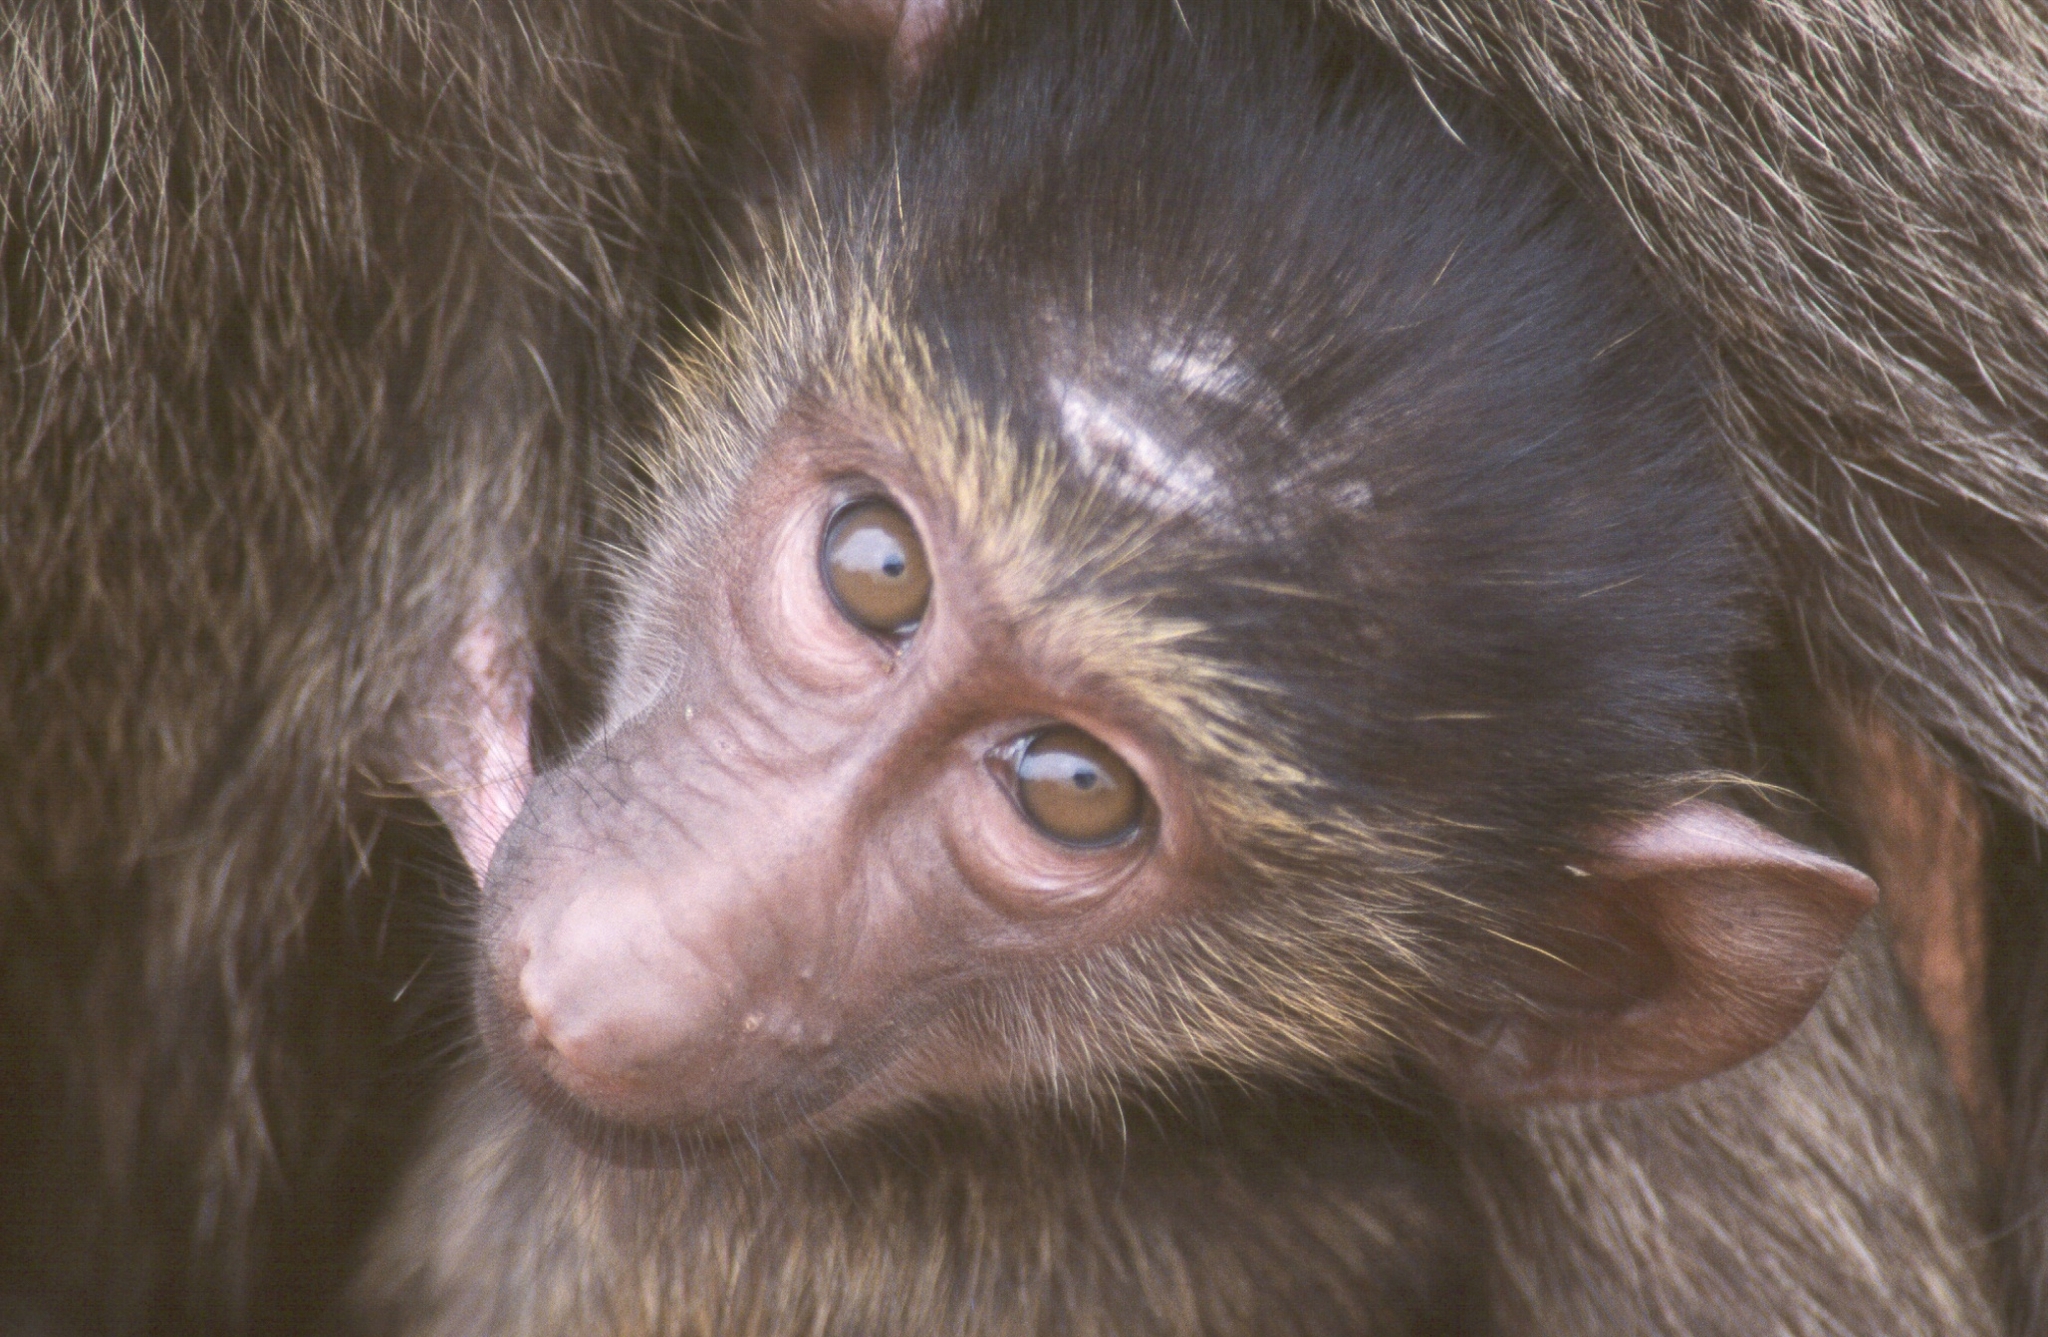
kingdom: Animalia
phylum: Chordata
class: Mammalia
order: Primates
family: Cercopithecidae
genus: Papio
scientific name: Papio anubis
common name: Olive baboon
